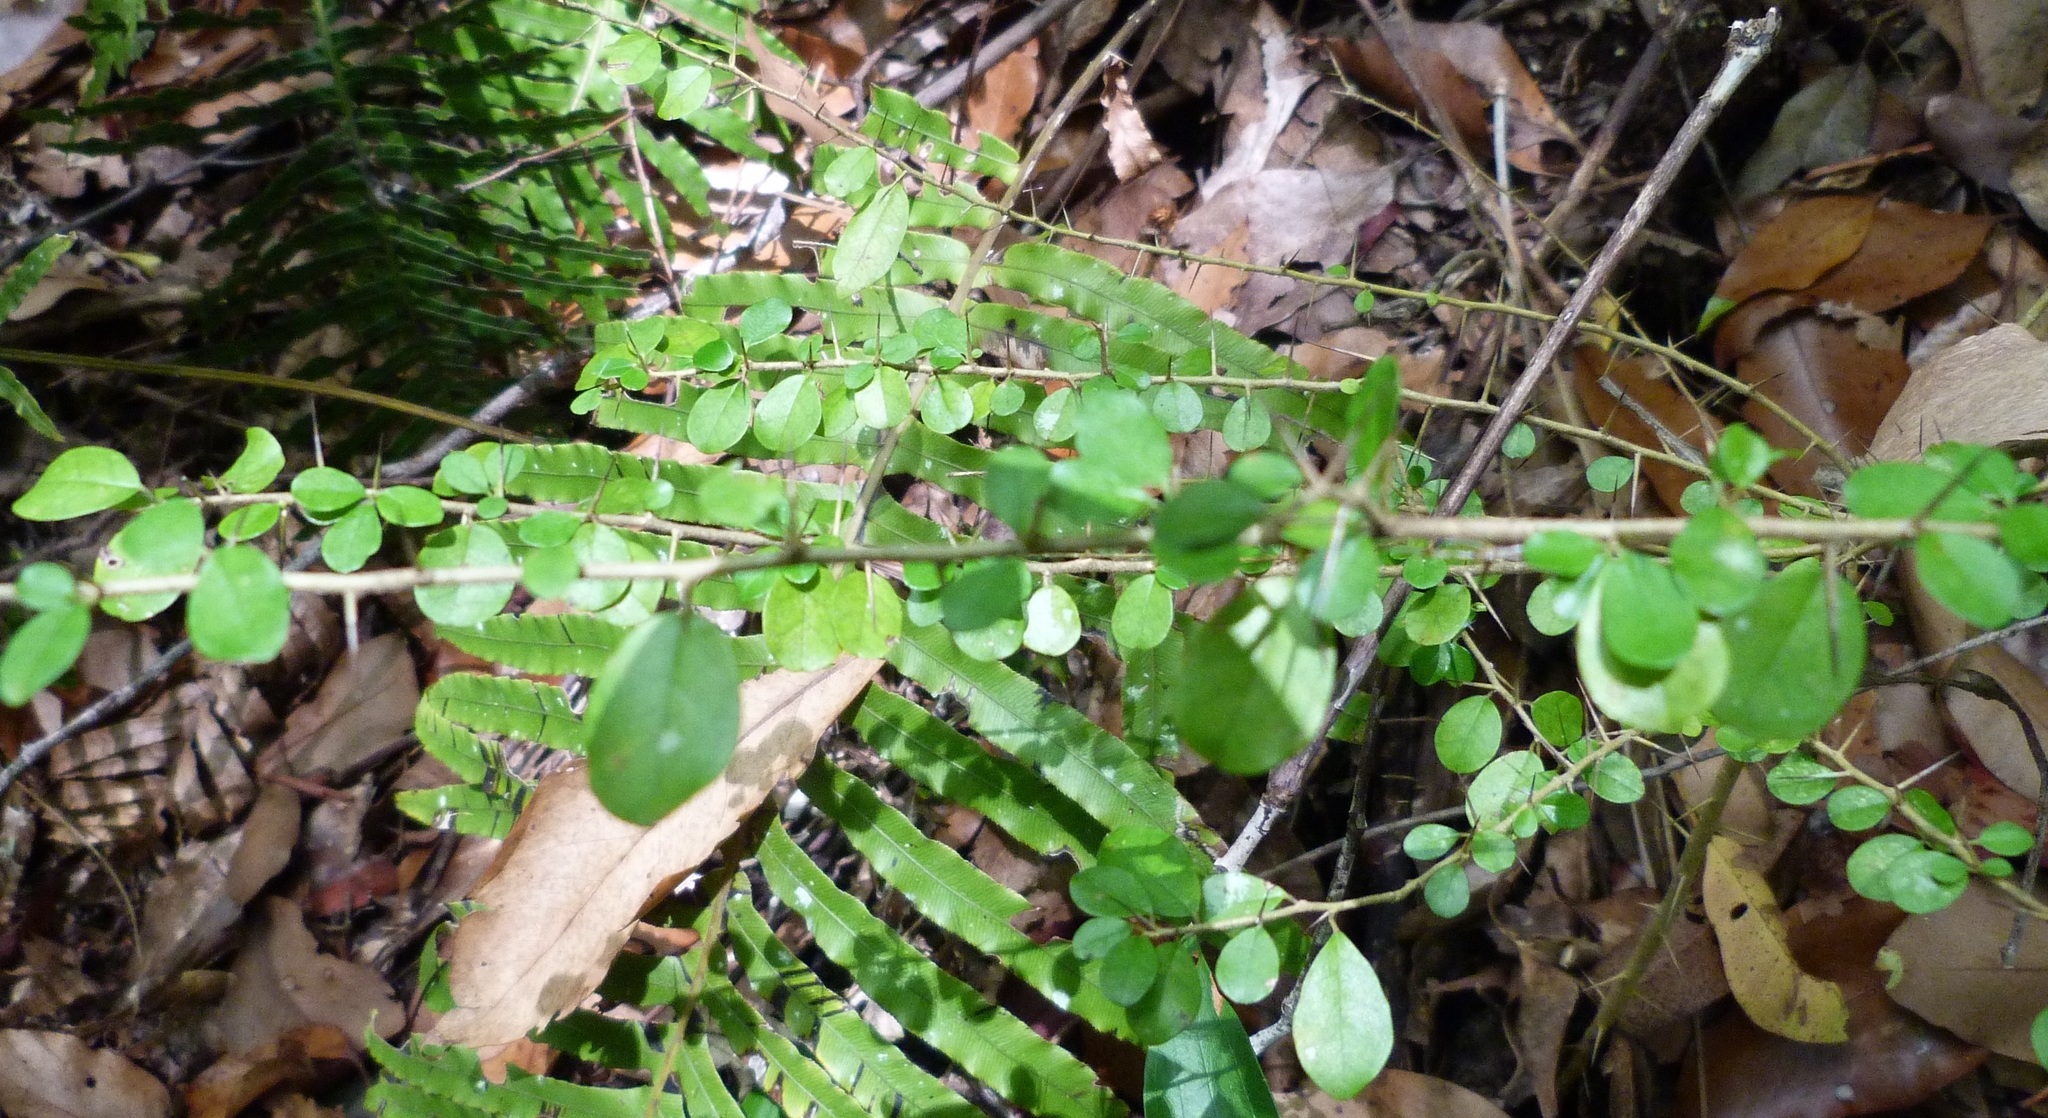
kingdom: Plantae
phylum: Tracheophyta
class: Magnoliopsida
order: Rosales
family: Moraceae
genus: Maclura
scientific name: Maclura cochinchinensis
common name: Cockspurthorn
